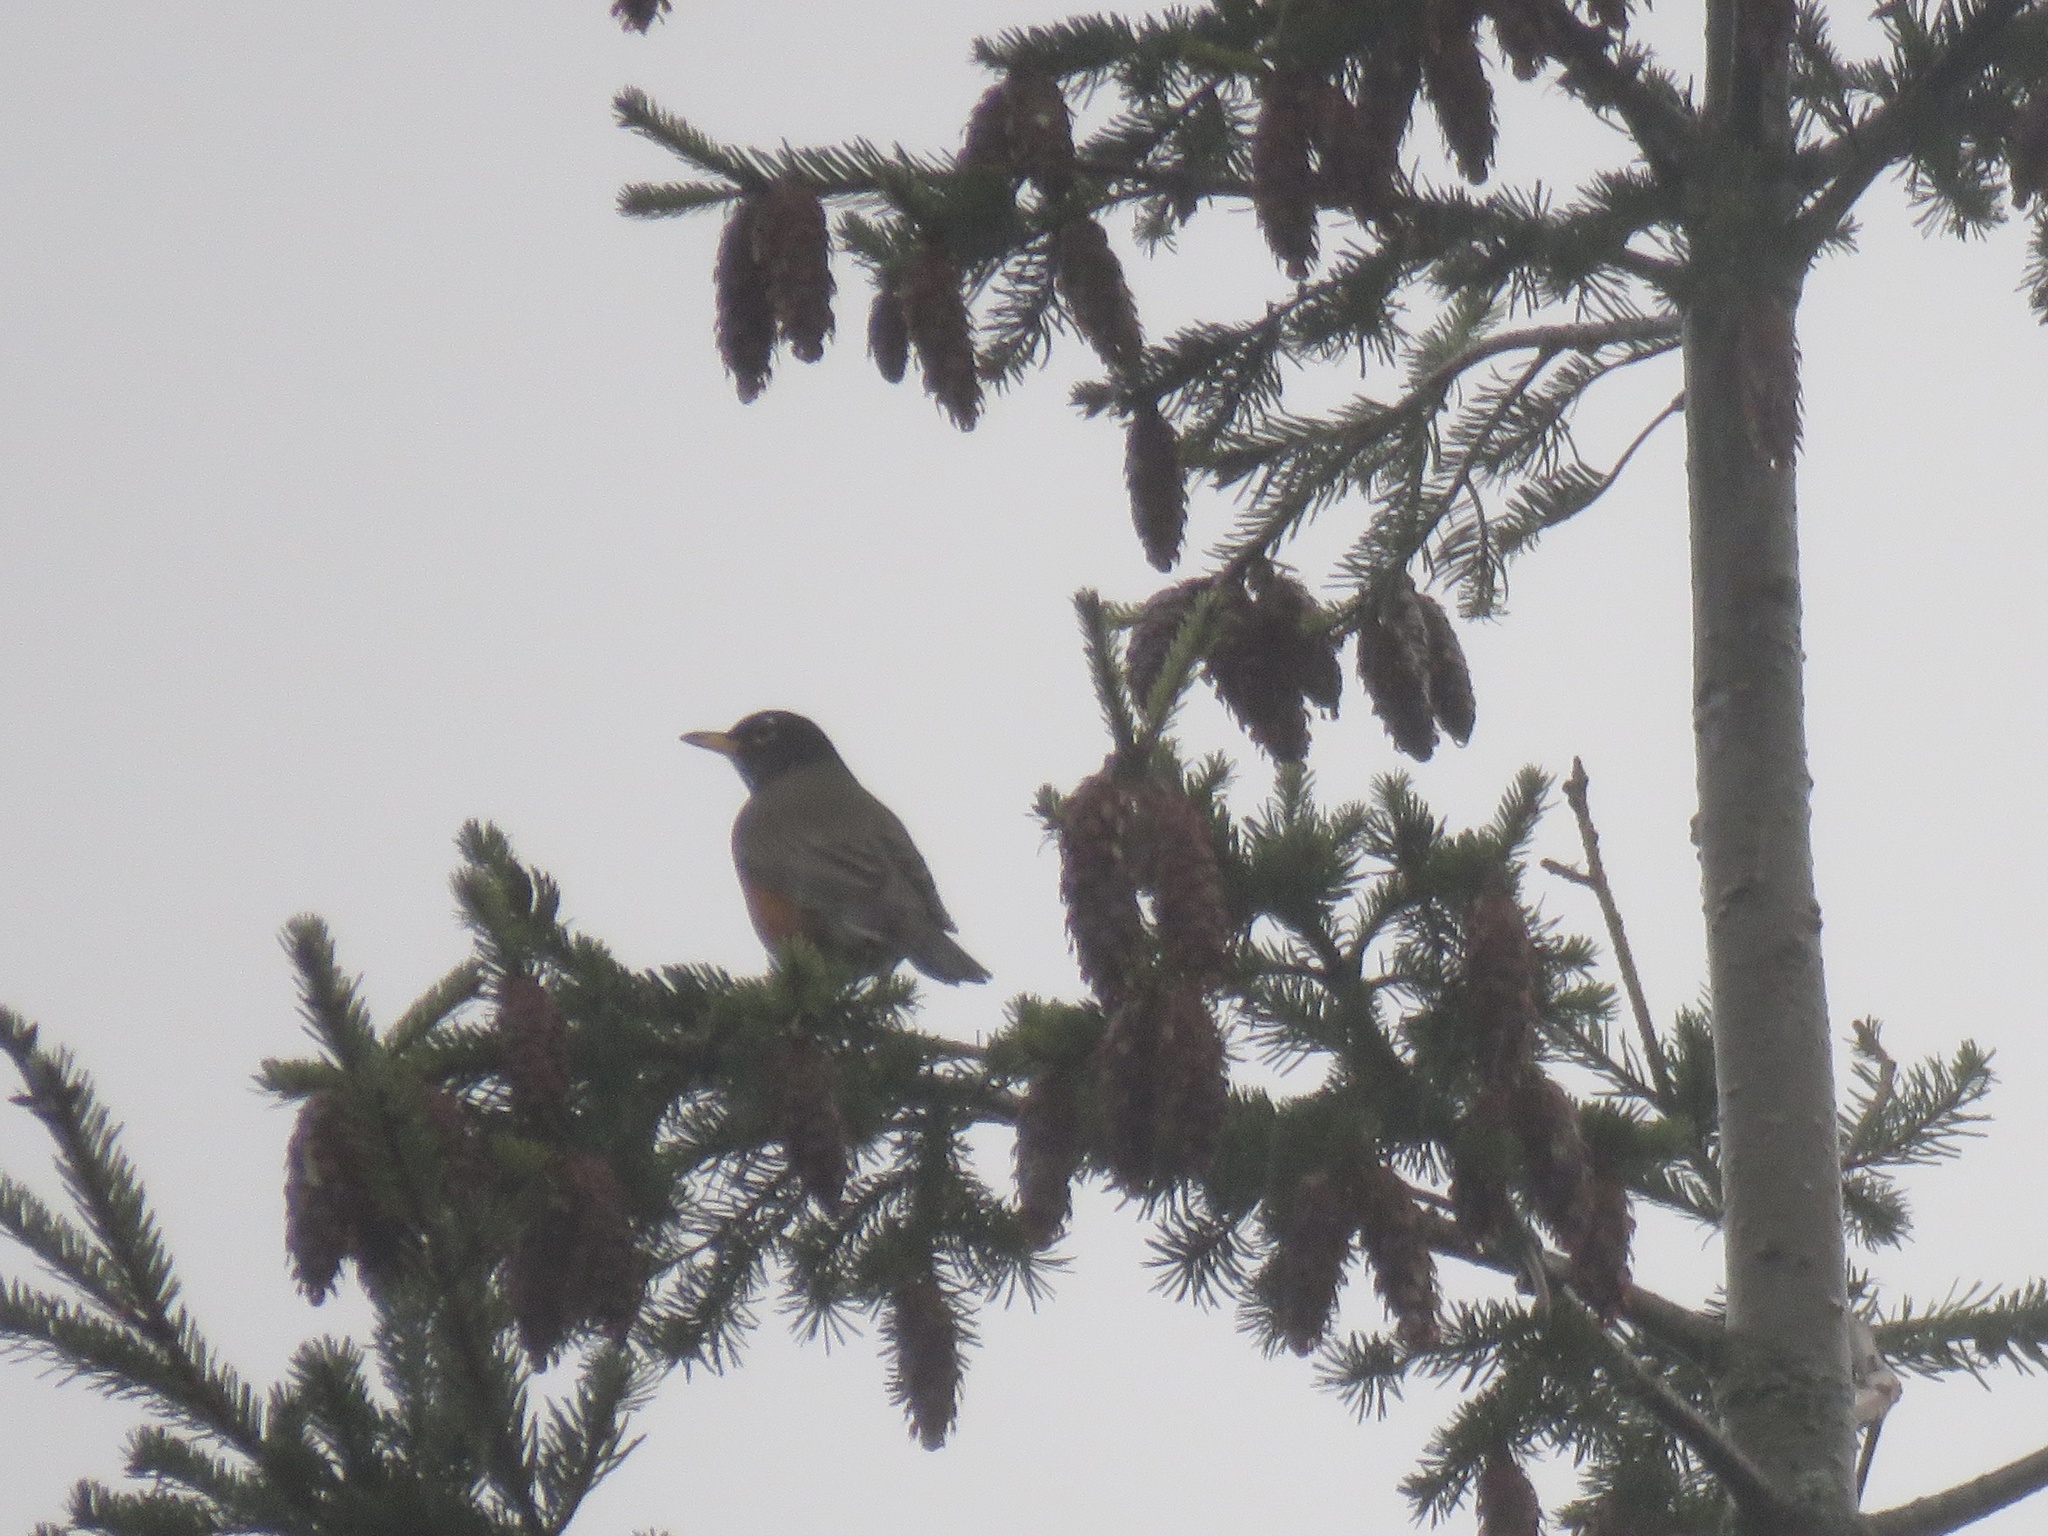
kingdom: Animalia
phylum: Chordata
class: Aves
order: Passeriformes
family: Turdidae
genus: Turdus
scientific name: Turdus migratorius
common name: American robin
